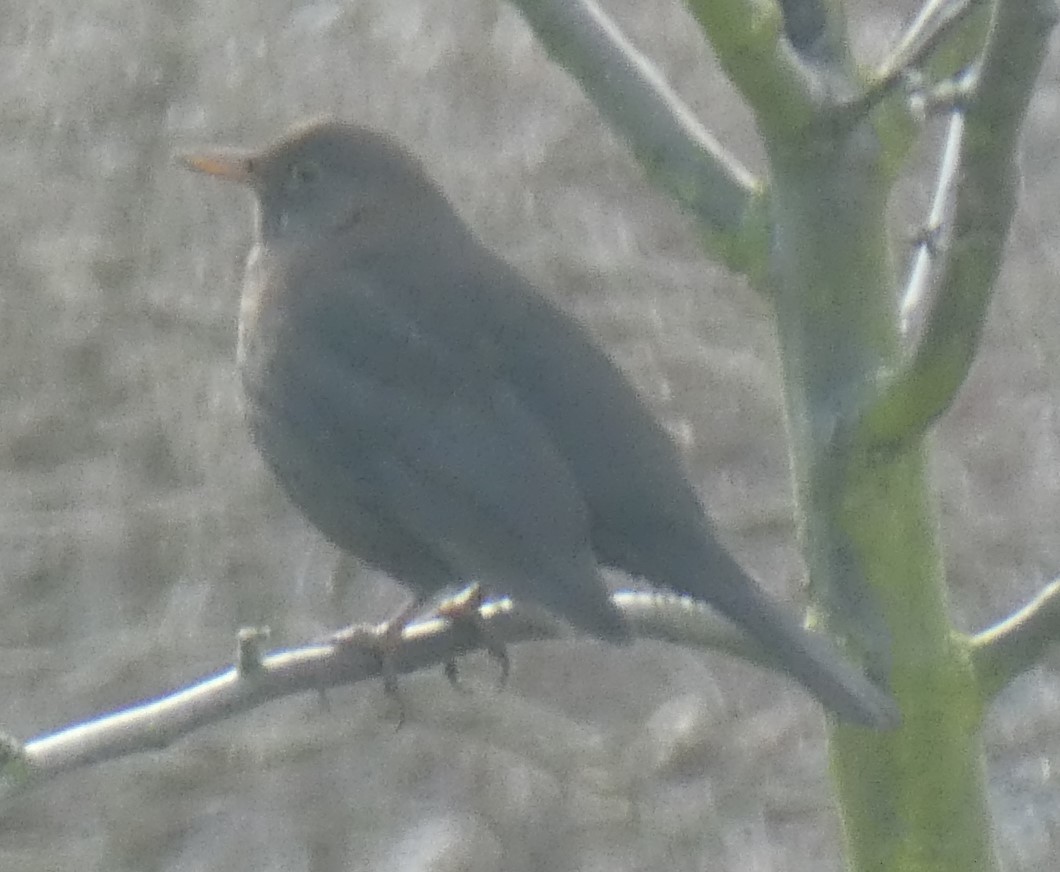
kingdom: Animalia
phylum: Chordata
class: Aves
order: Passeriformes
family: Turdidae
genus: Turdus
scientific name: Turdus merula
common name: Common blackbird
